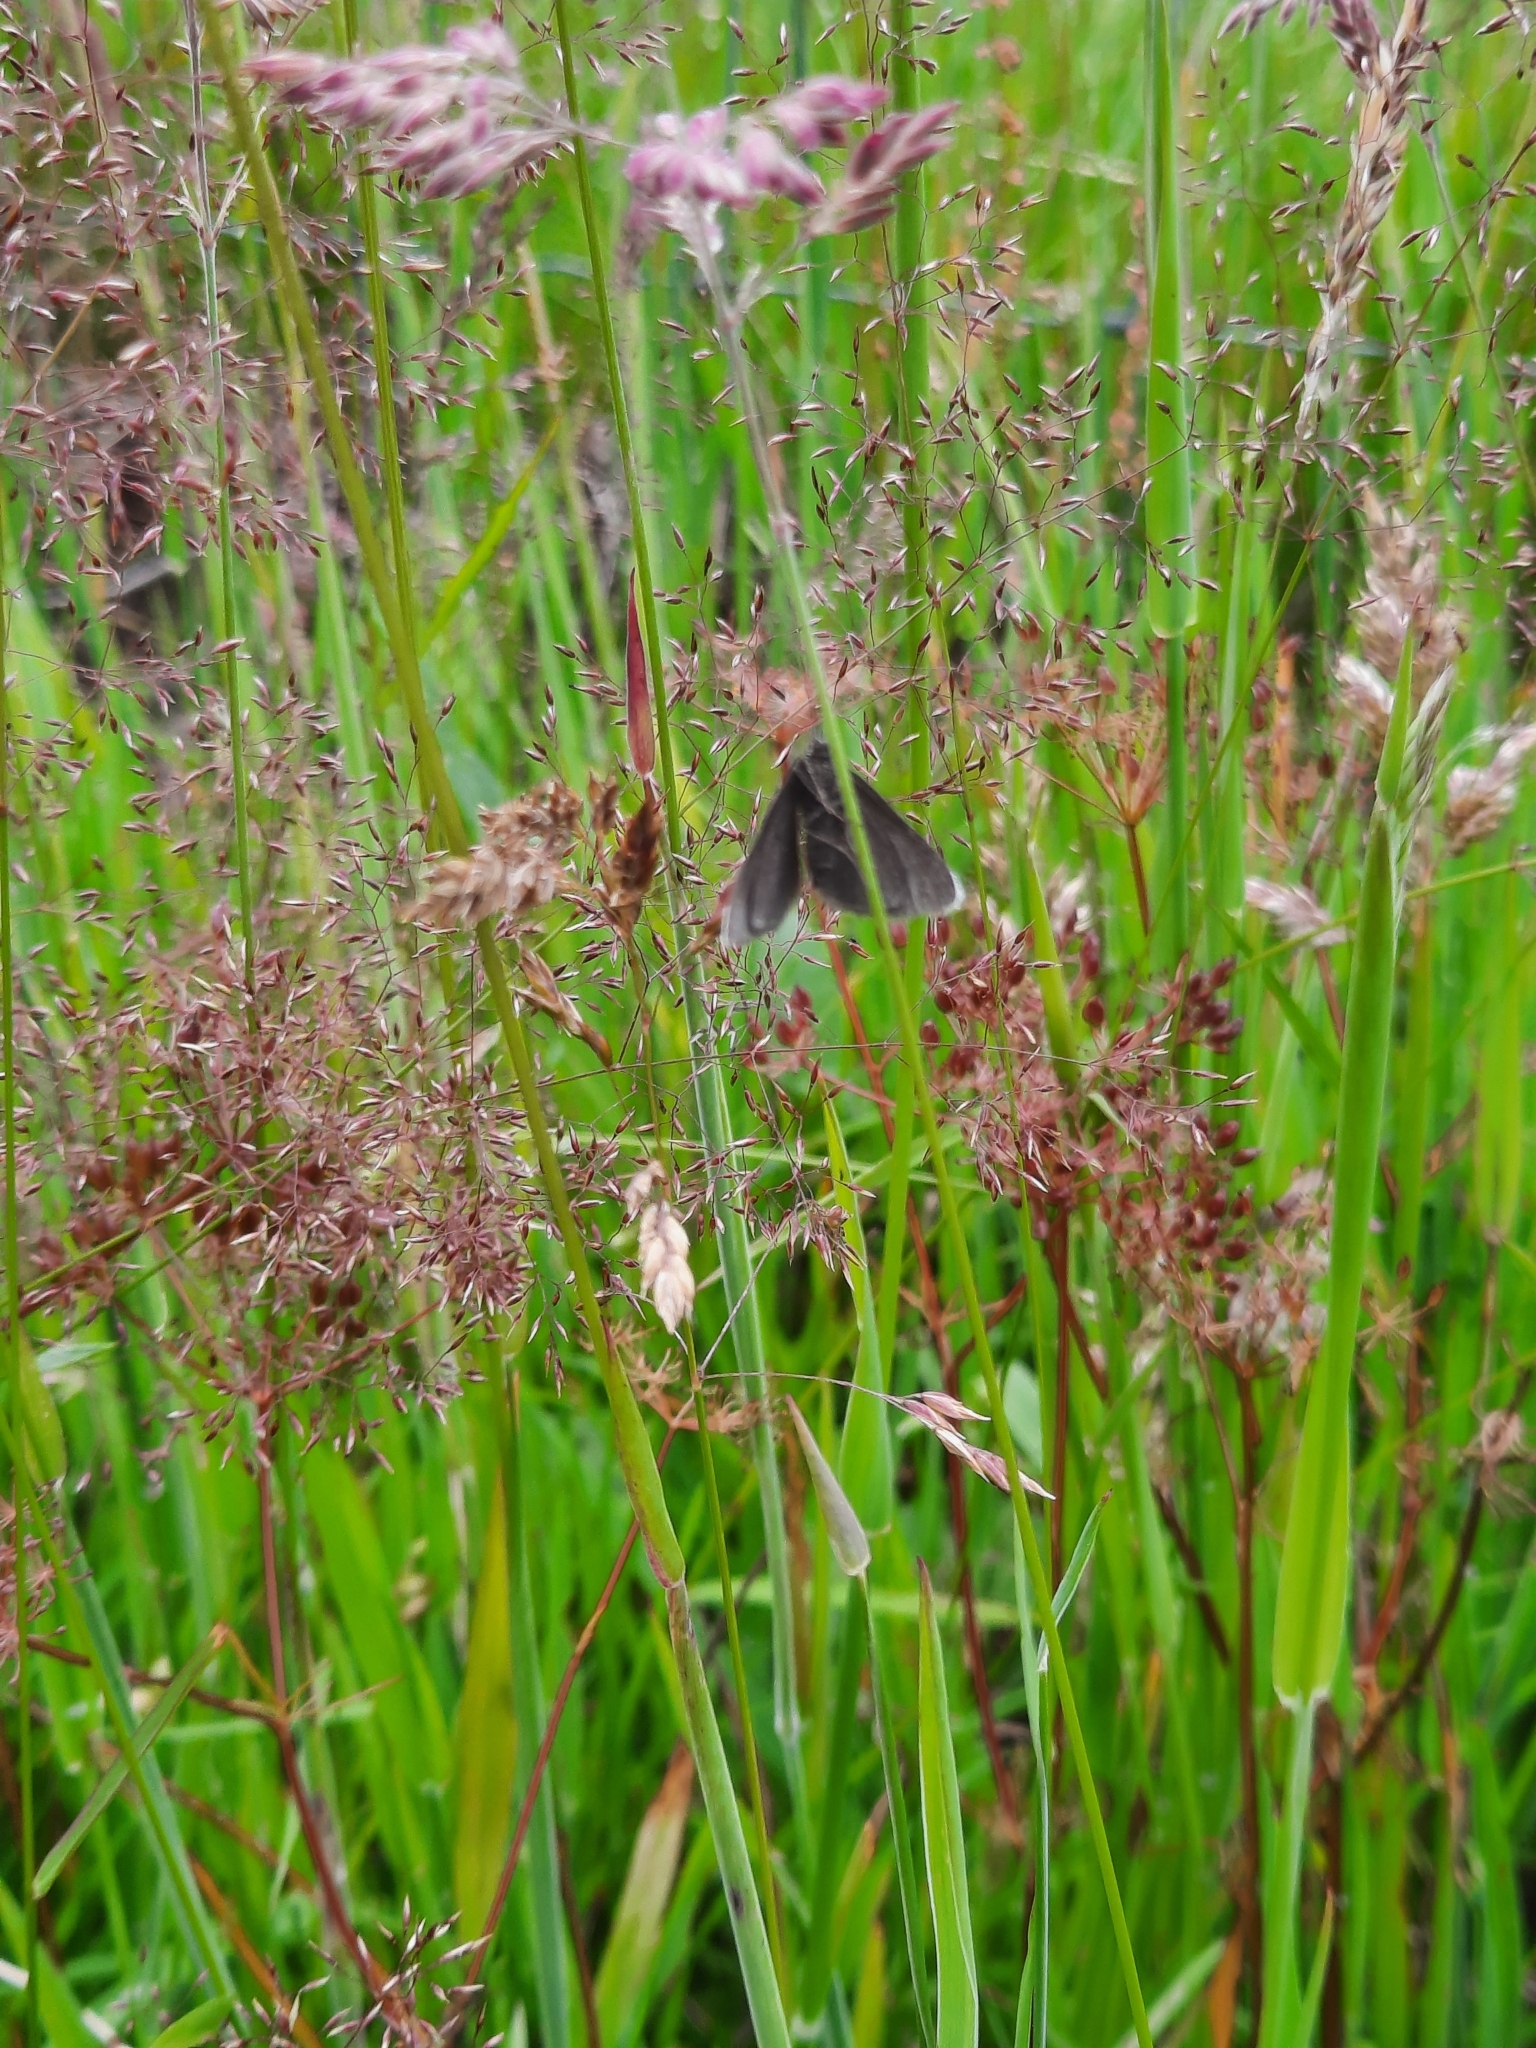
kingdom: Animalia
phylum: Arthropoda
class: Insecta
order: Lepidoptera
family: Geometridae
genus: Odezia
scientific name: Odezia atrata
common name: Chimney sweeper
